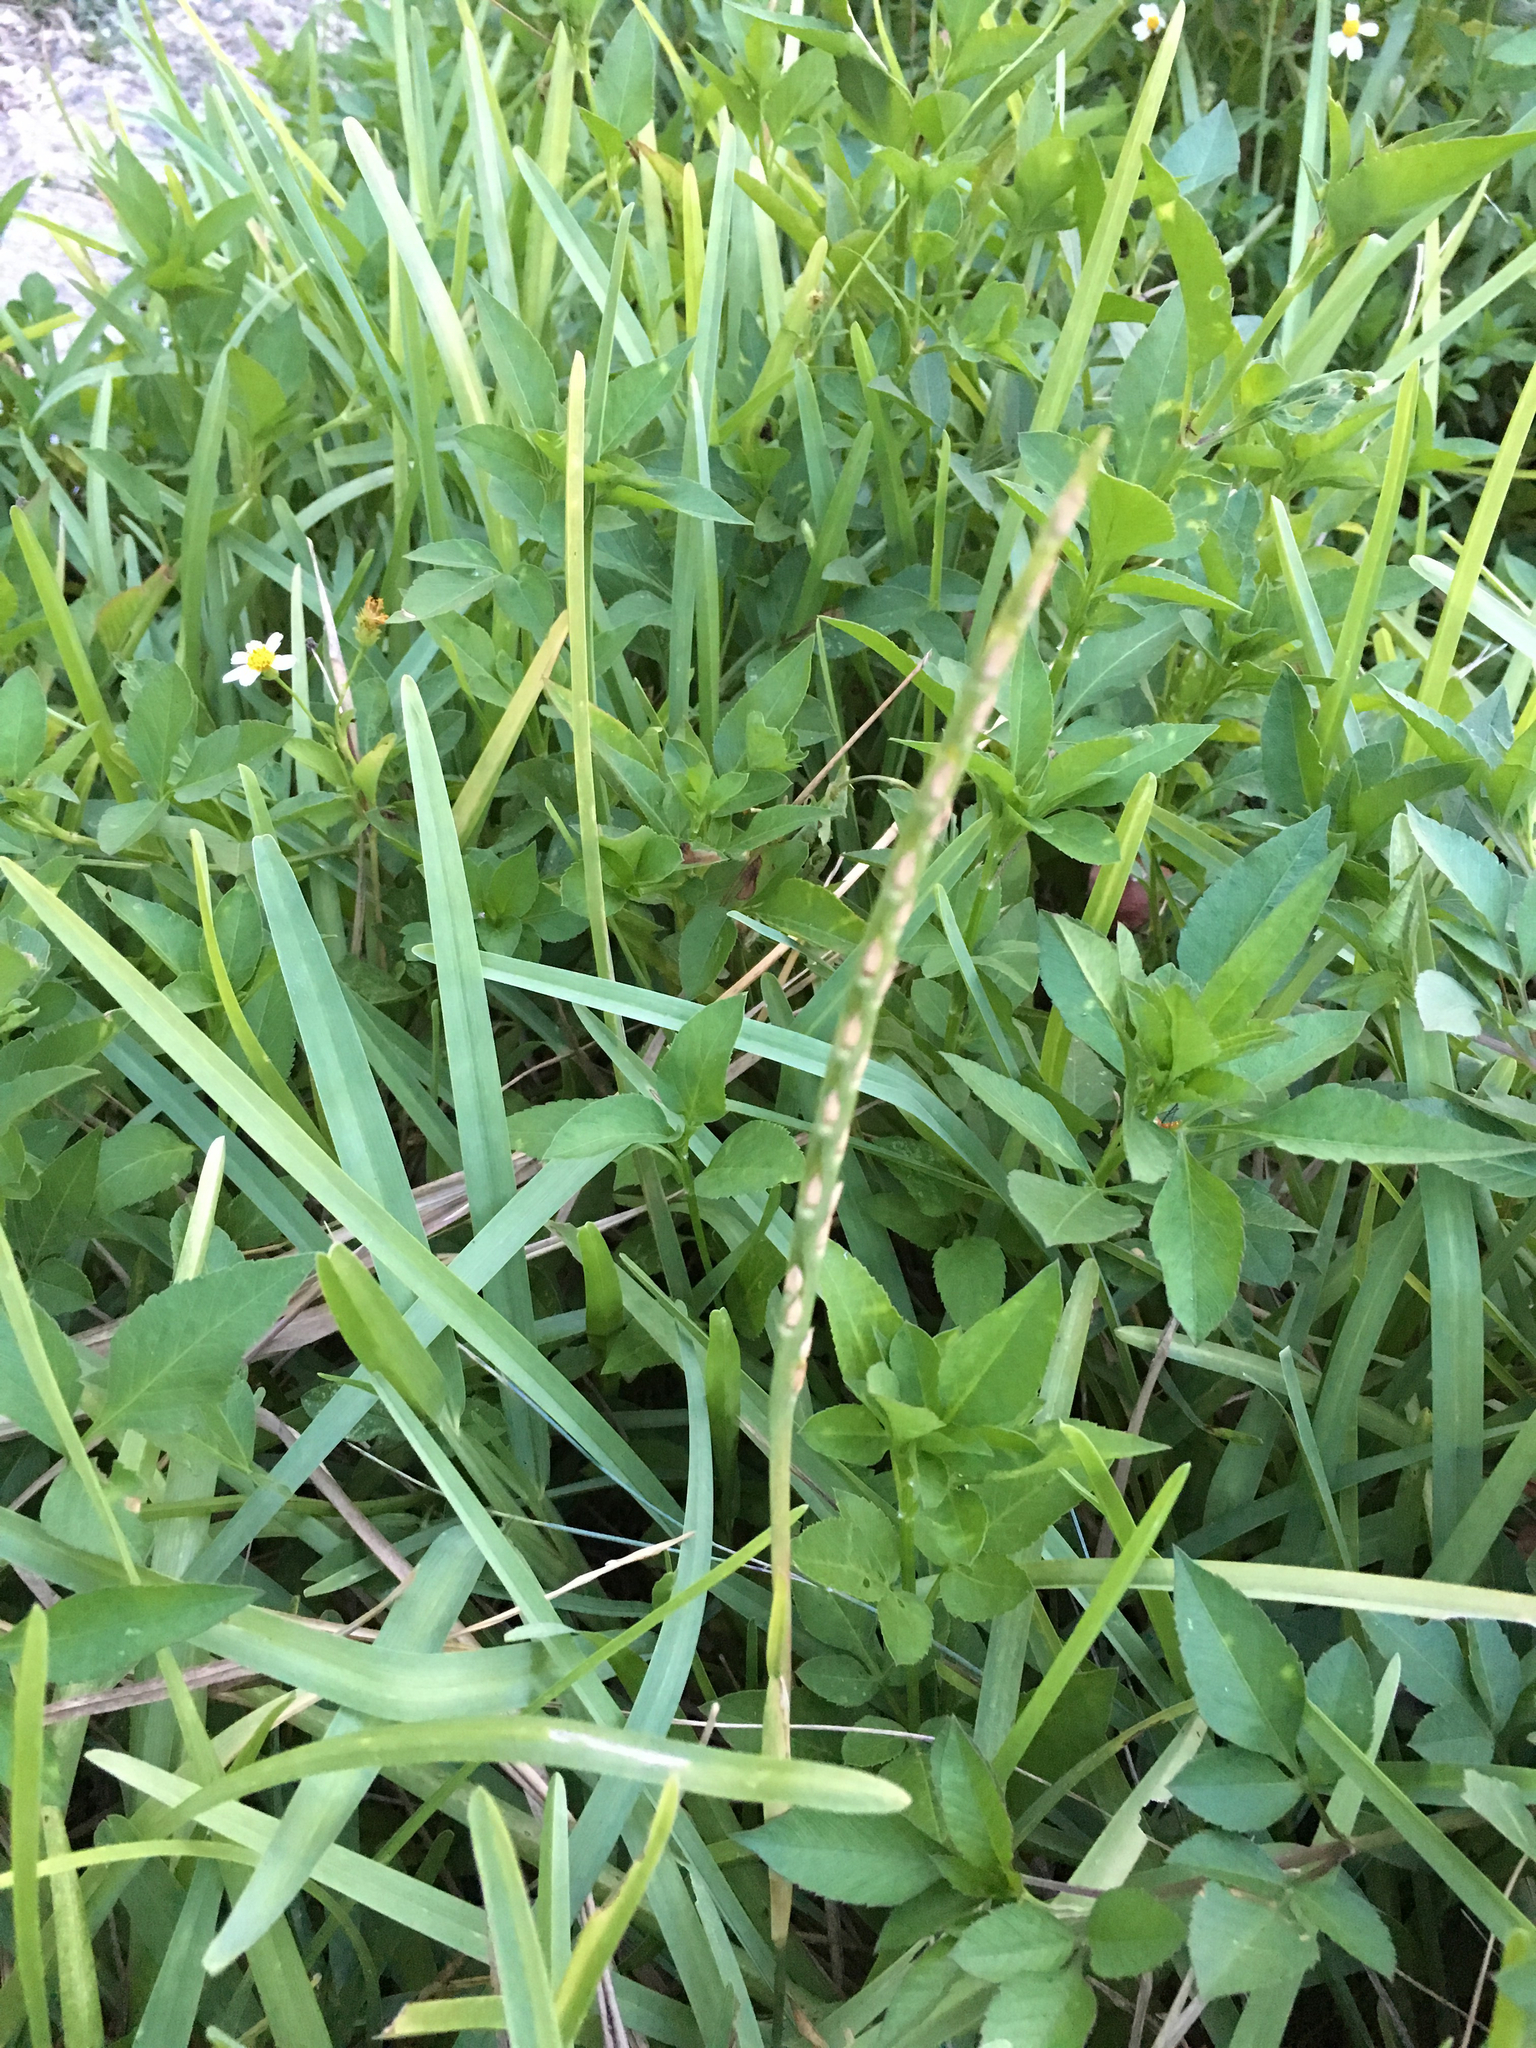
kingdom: Plantae
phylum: Tracheophyta
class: Liliopsida
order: Poales
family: Poaceae
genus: Stenotaphrum
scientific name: Stenotaphrum secundatum
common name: St. augustine grass
